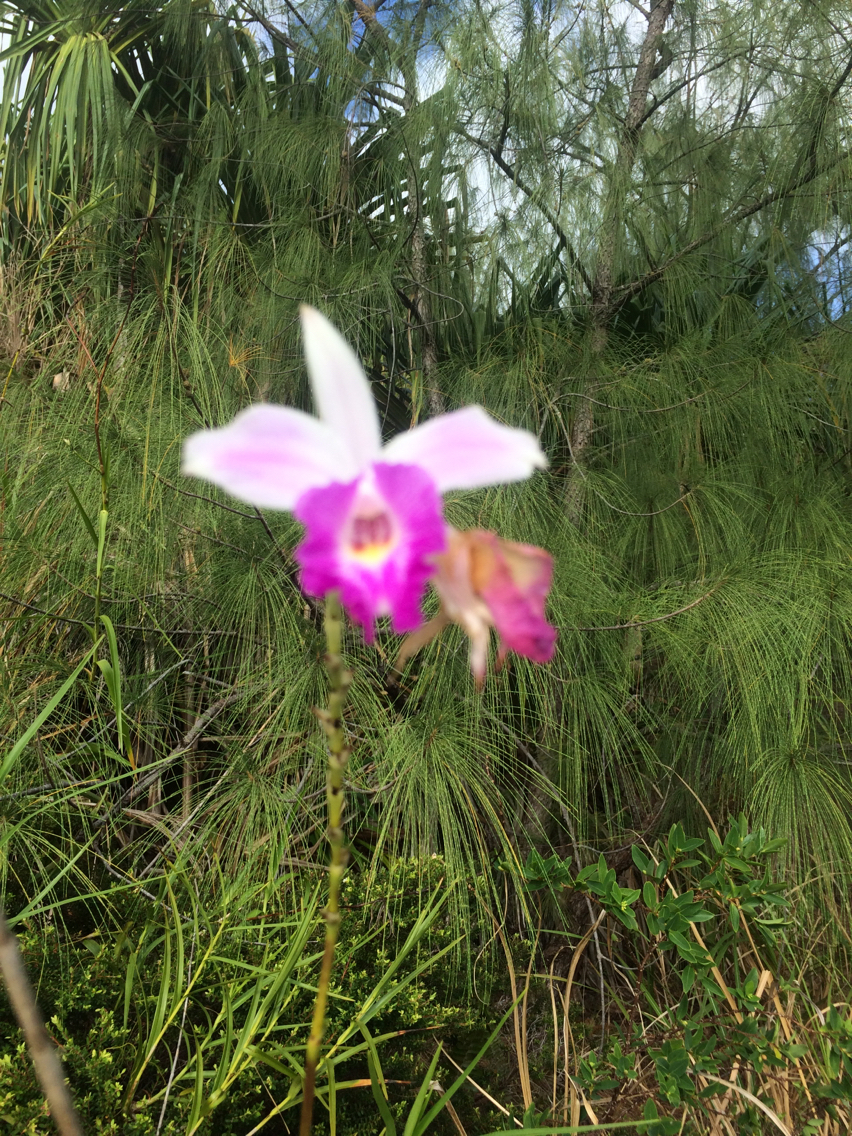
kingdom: Plantae
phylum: Tracheophyta
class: Liliopsida
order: Asparagales
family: Orchidaceae
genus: Arundina
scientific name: Arundina graminifolia
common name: Bamboo orchid
